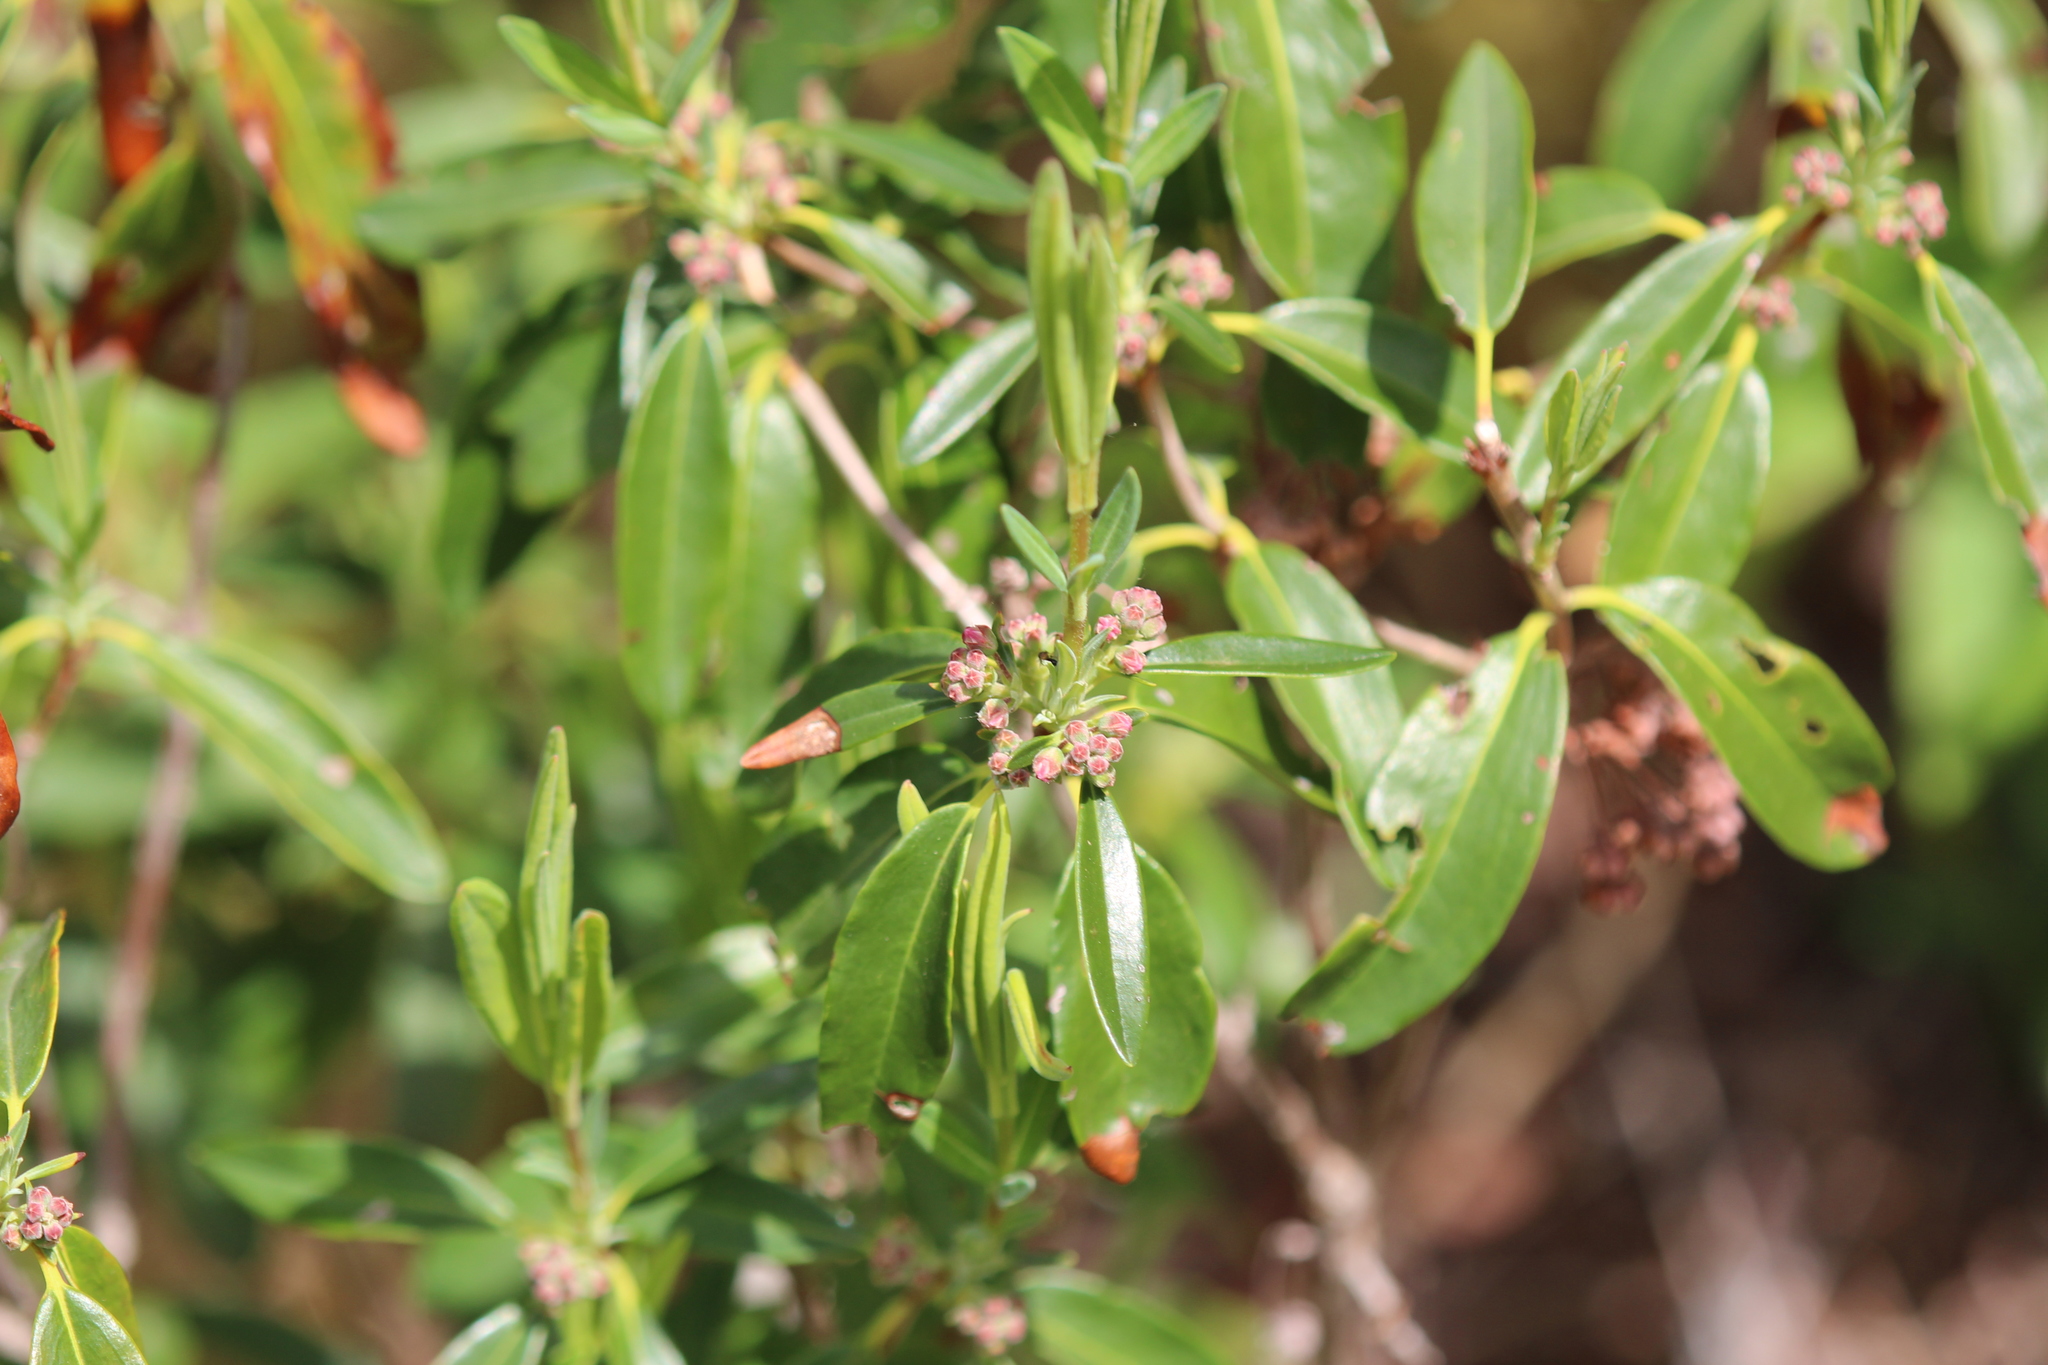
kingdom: Plantae
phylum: Tracheophyta
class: Magnoliopsida
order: Ericales
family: Ericaceae
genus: Kalmia
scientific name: Kalmia angustifolia
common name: Sheep-laurel
